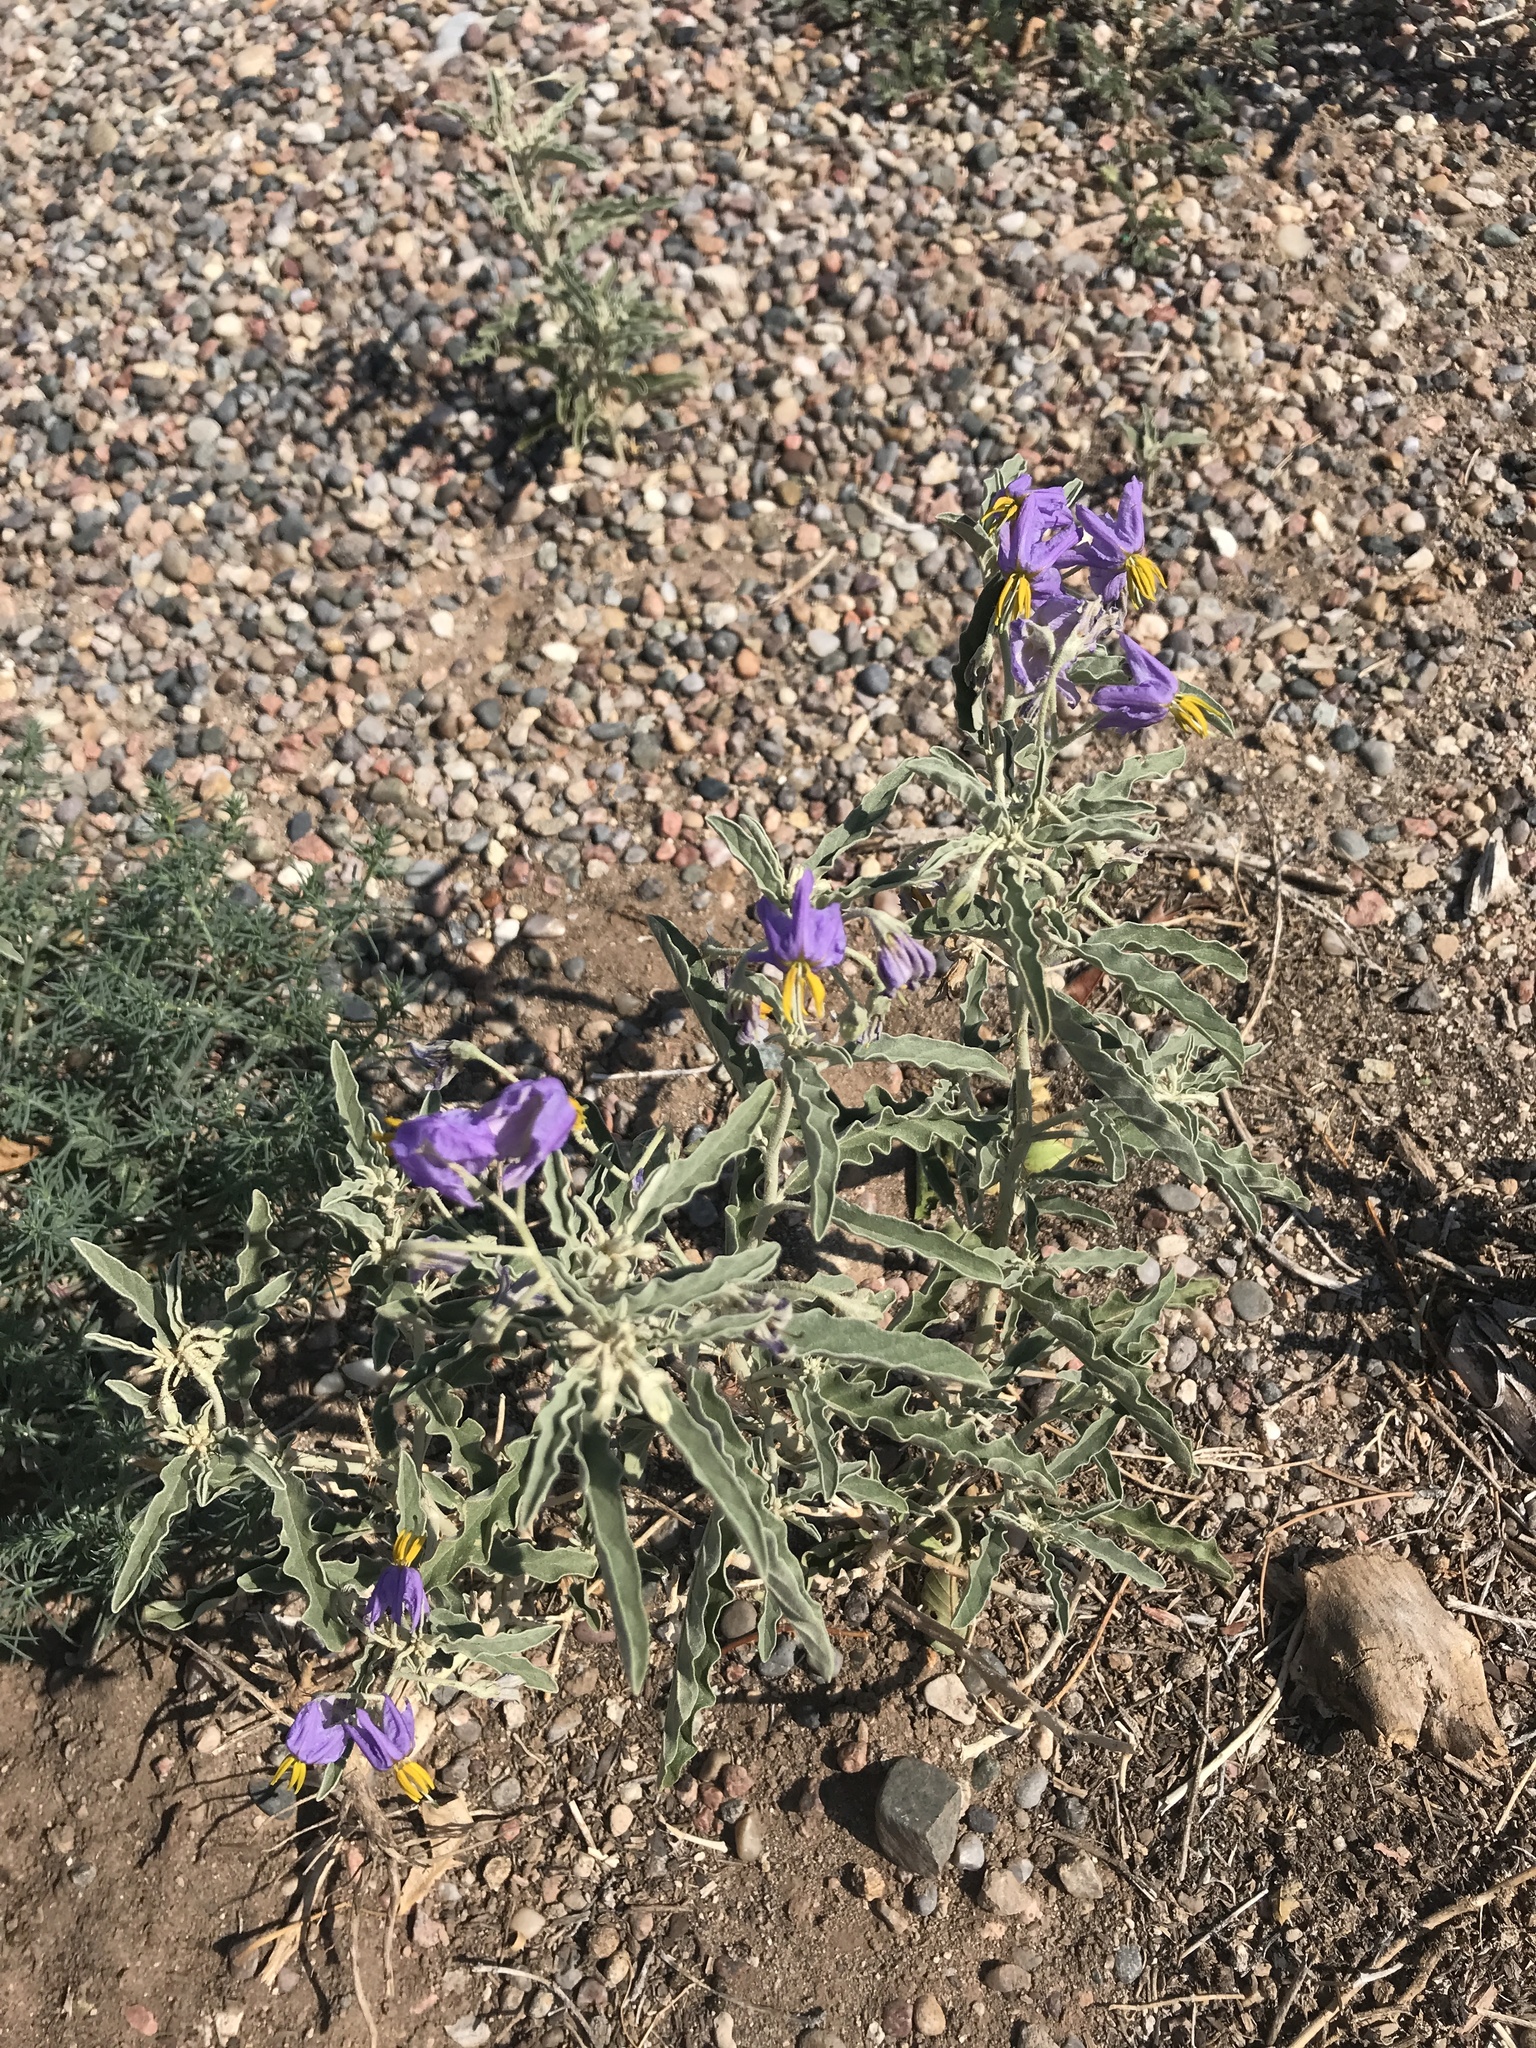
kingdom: Plantae
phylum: Tracheophyta
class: Magnoliopsida
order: Solanales
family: Solanaceae
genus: Solanum
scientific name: Solanum elaeagnifolium
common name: Silverleaf nightshade
